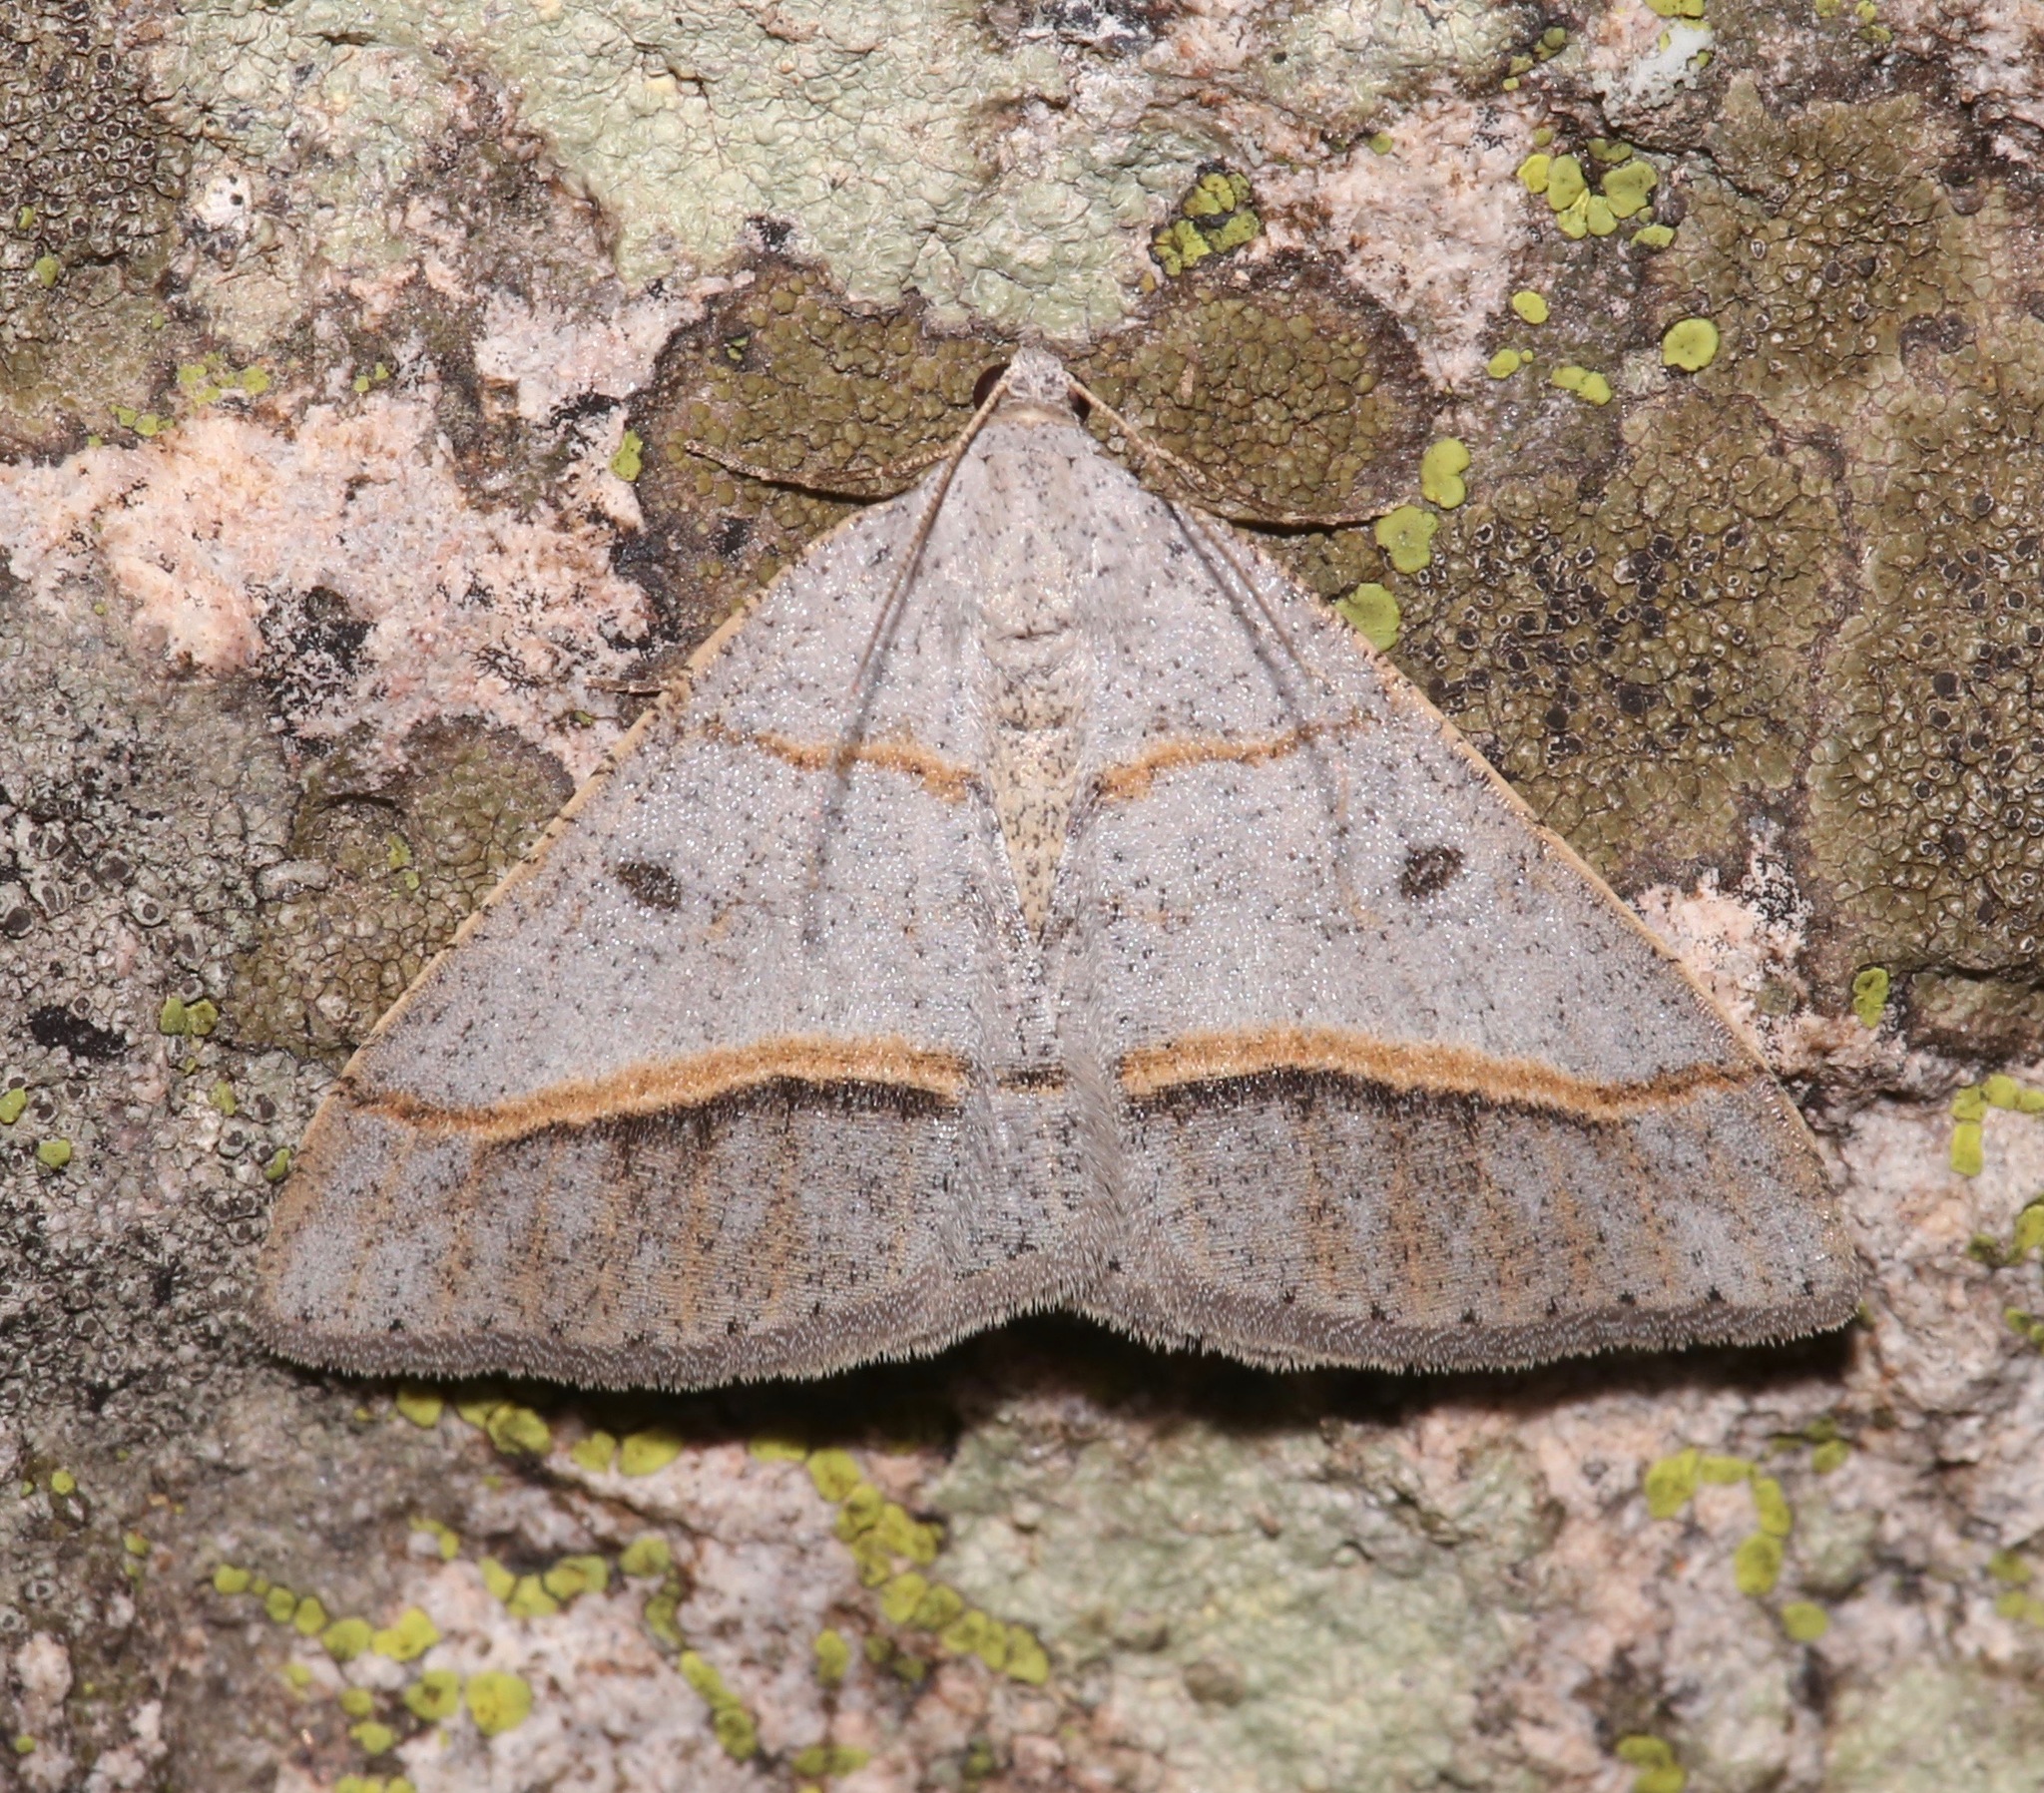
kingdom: Animalia
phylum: Arthropoda
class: Insecta
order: Lepidoptera
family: Geometridae
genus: Digrammia
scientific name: Digrammia neptaria
